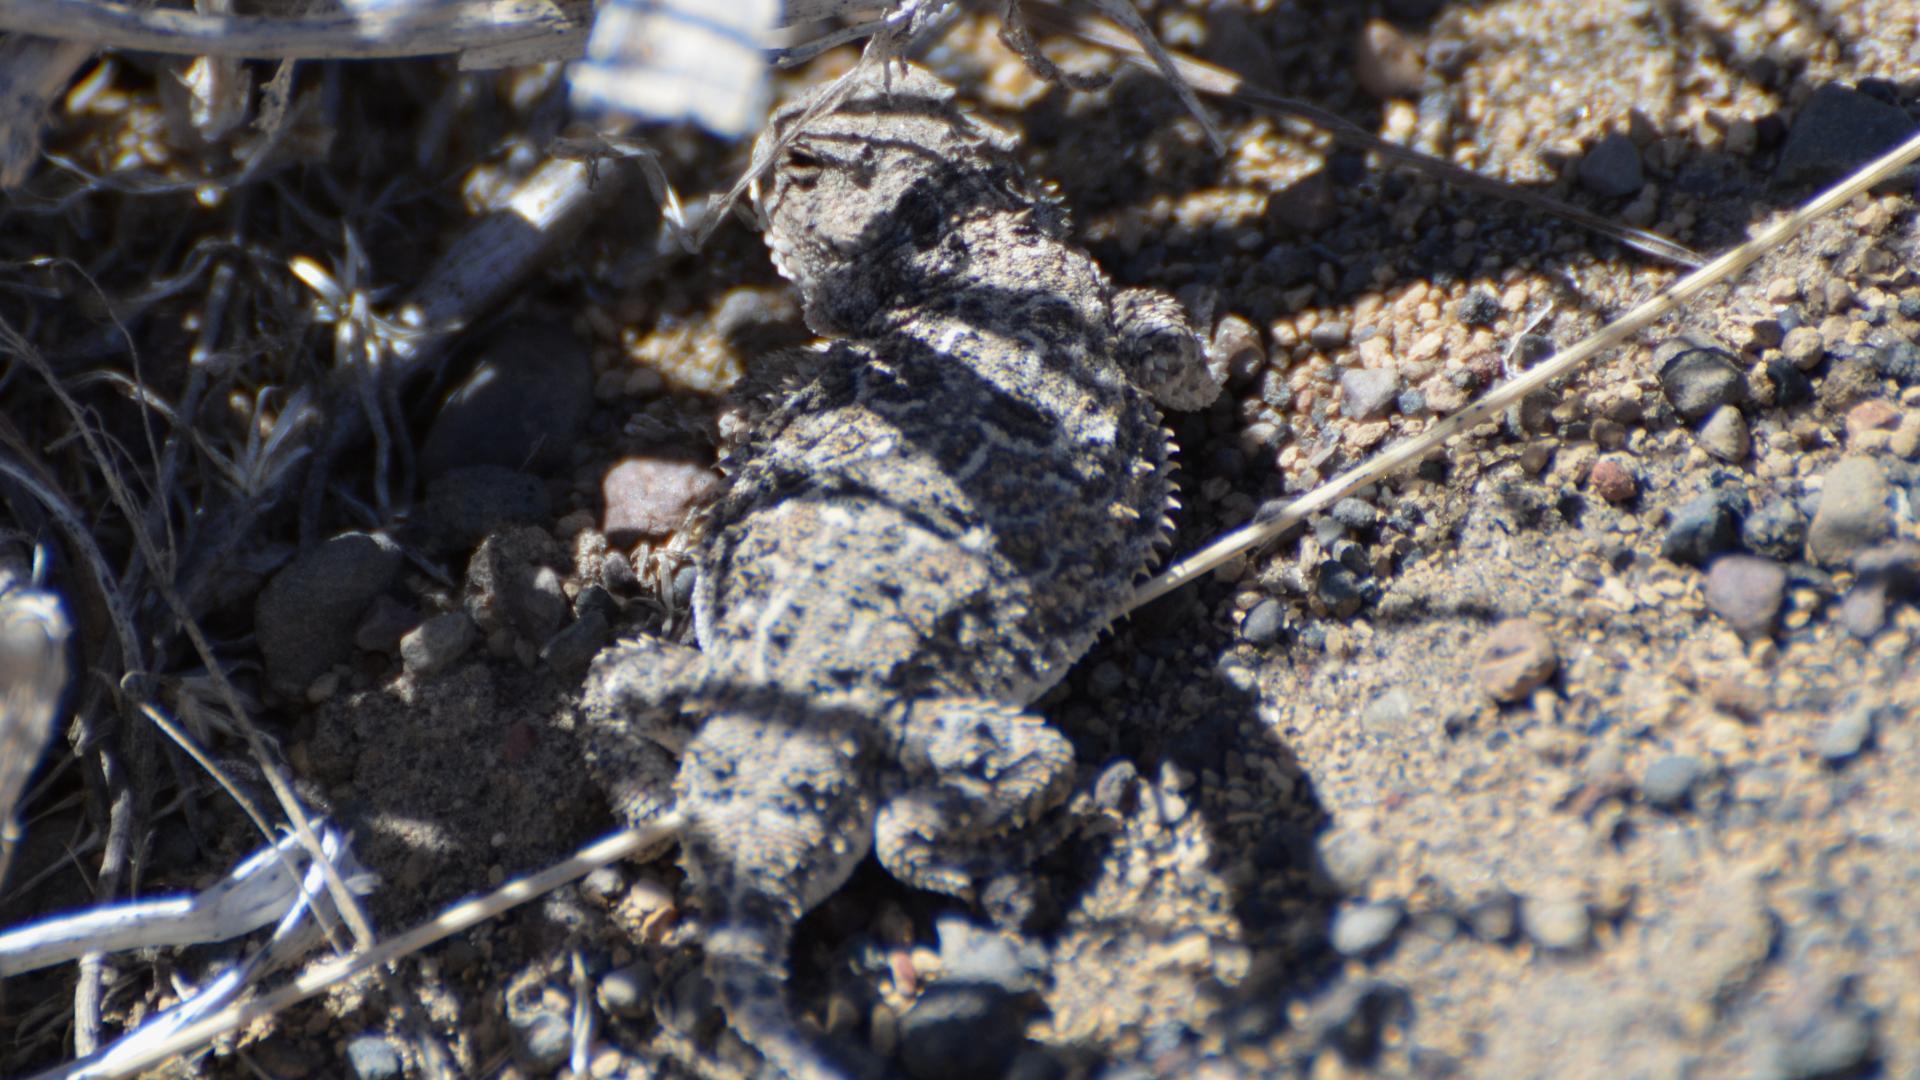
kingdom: Animalia
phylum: Chordata
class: Squamata
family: Phrynosomatidae
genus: Phrynosoma
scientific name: Phrynosoma douglasii
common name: Short-horned lizard
